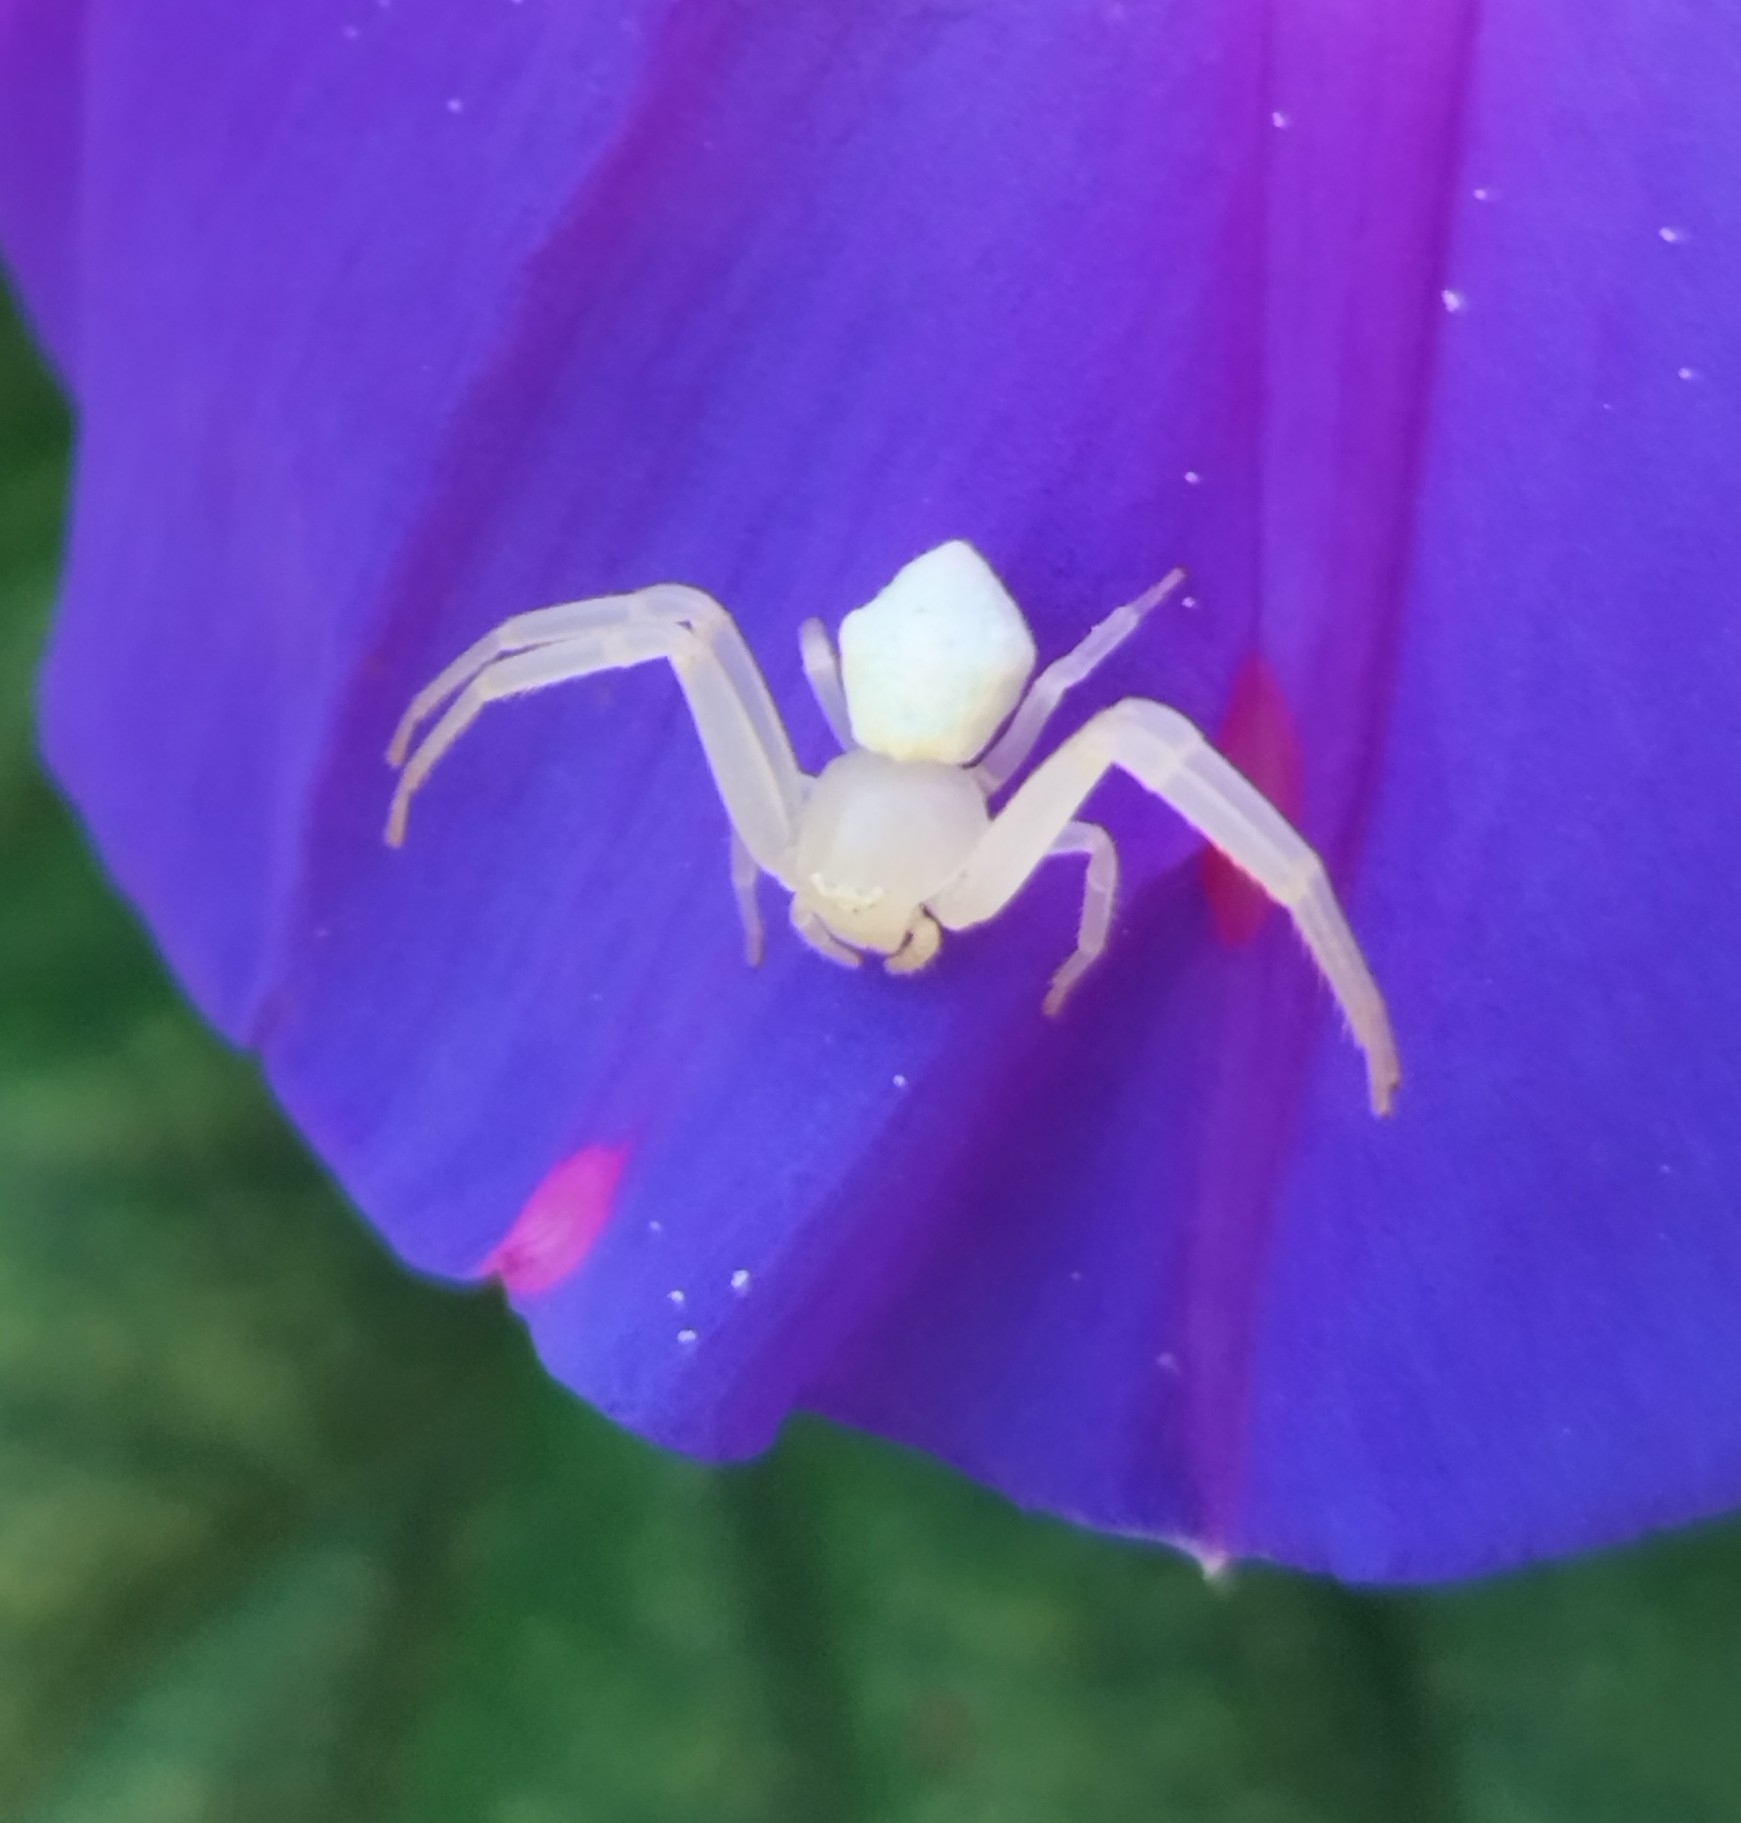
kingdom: Animalia
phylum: Arthropoda
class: Arachnida
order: Araneae
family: Thomisidae
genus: Misumenops
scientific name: Misumenops
